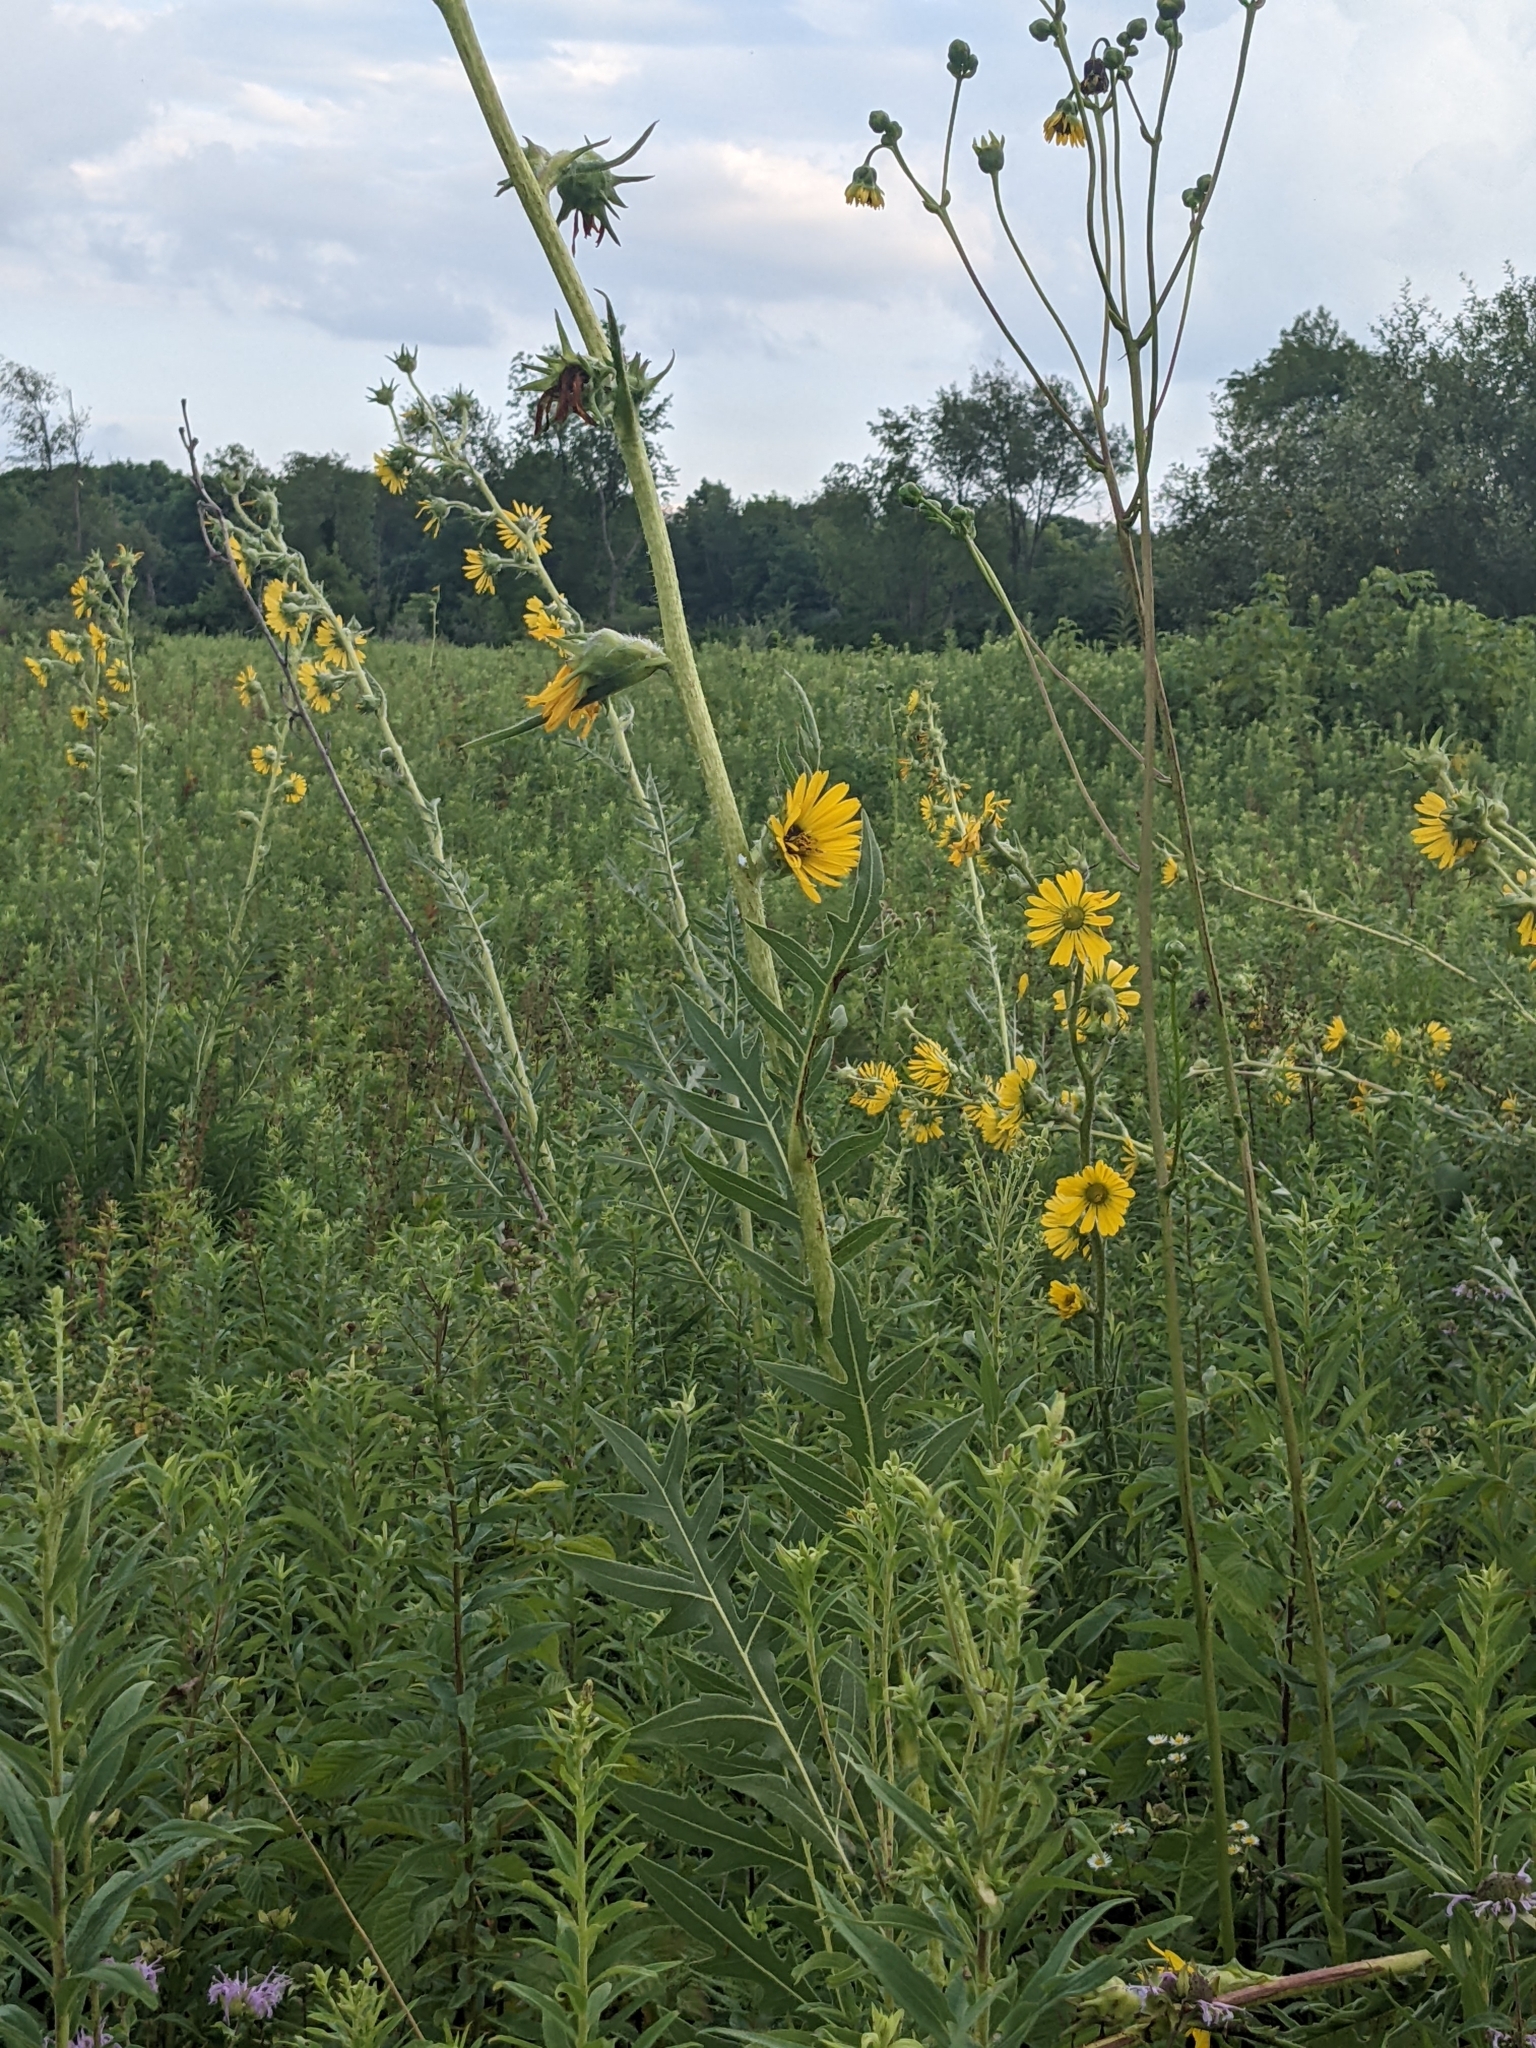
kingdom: Plantae
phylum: Tracheophyta
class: Magnoliopsida
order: Asterales
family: Asteraceae
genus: Silphium
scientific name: Silphium laciniatum
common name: Polarplant
